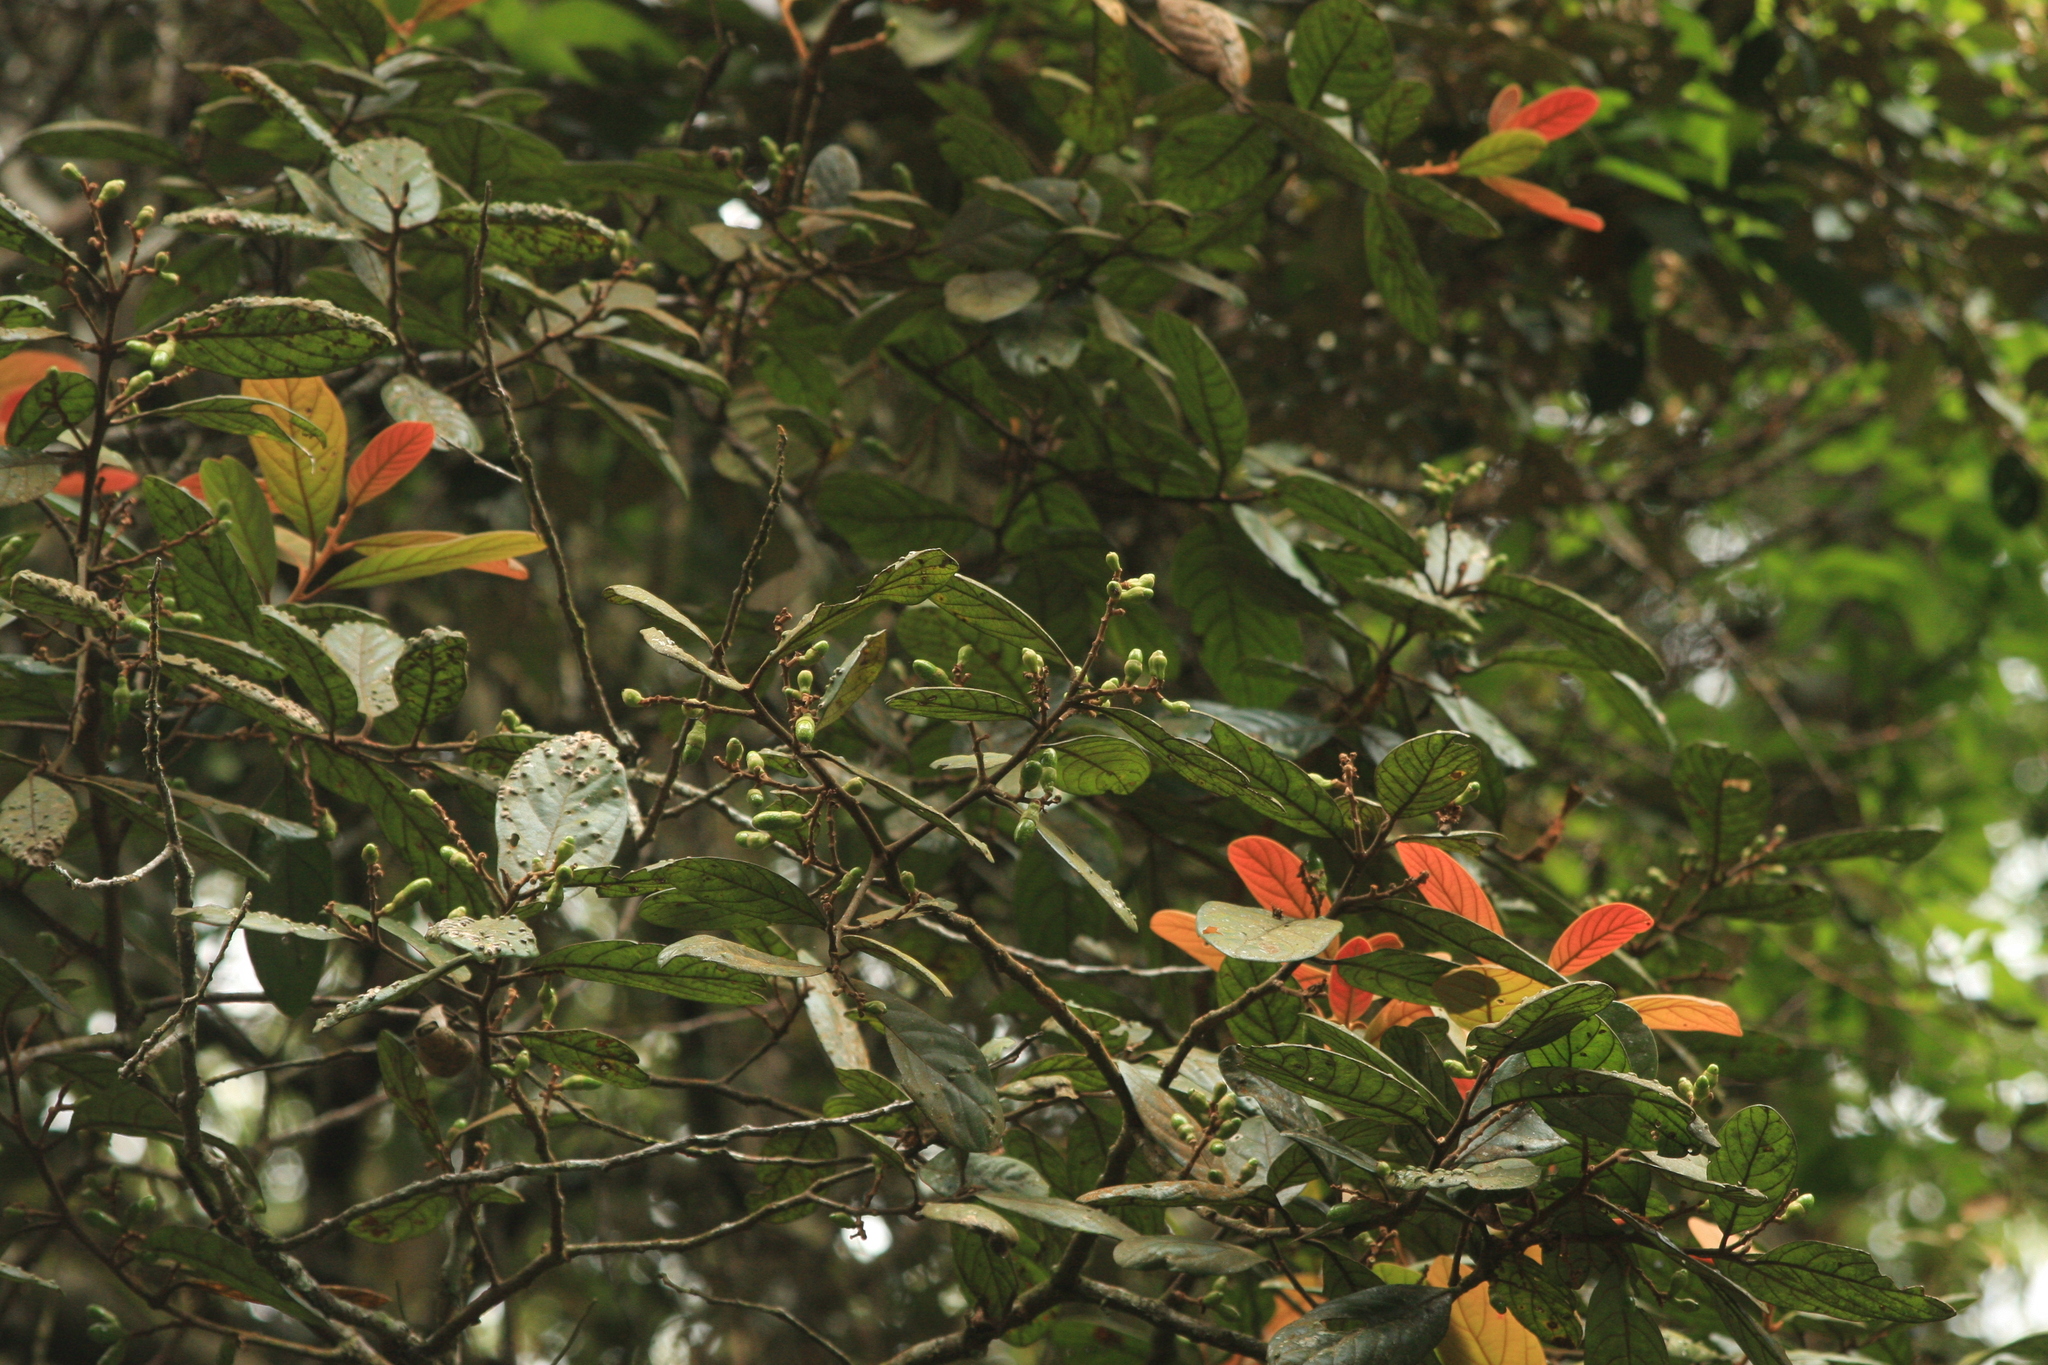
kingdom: Plantae
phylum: Tracheophyta
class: Magnoliopsida
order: Laurales
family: Lauraceae
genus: Litsea
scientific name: Litsea bourdillonii
